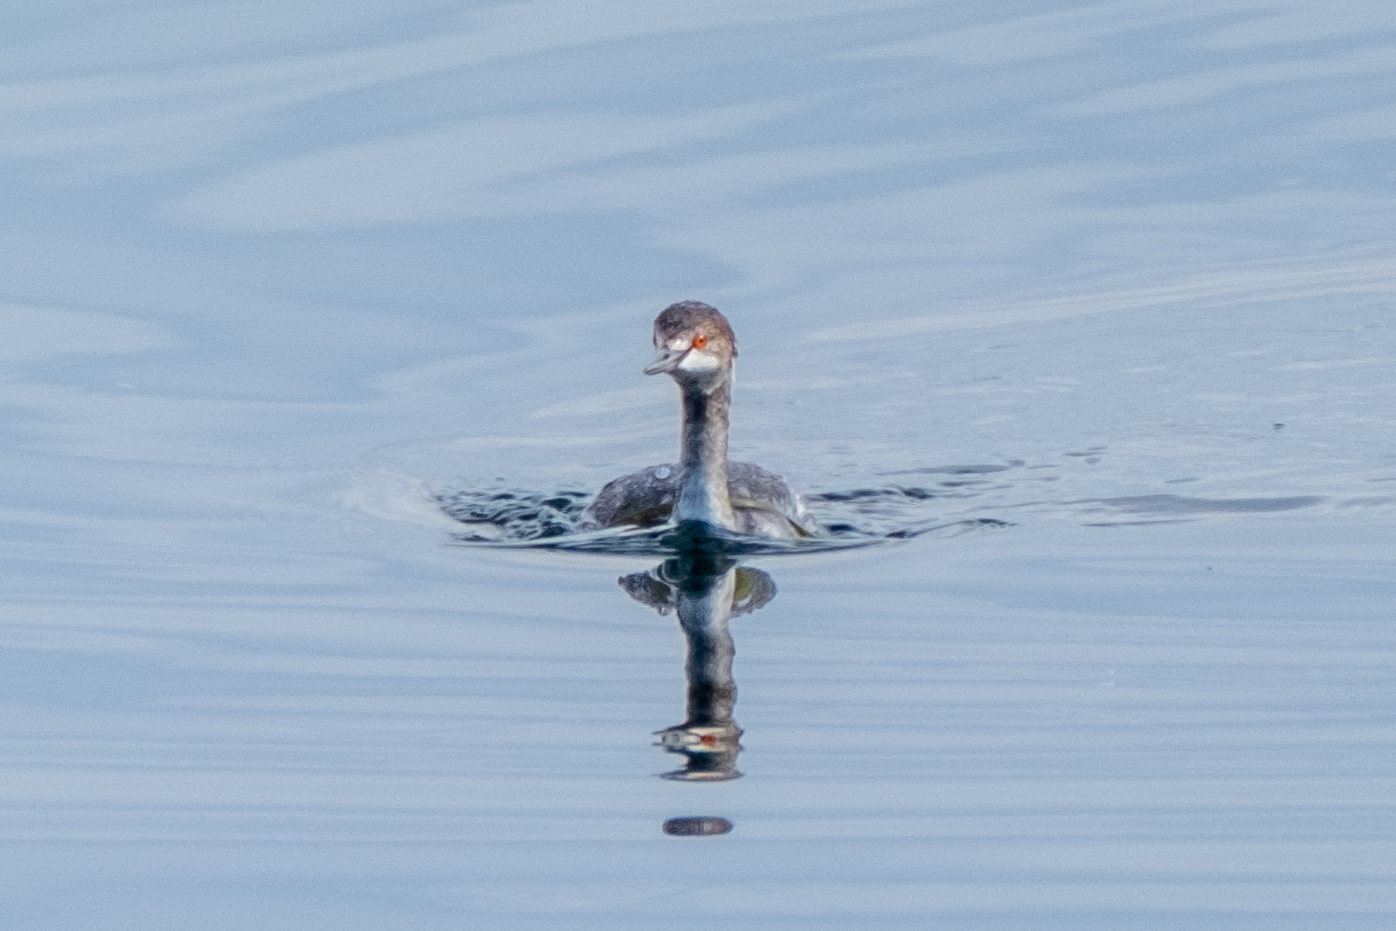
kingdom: Animalia
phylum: Chordata
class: Aves
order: Podicipediformes
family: Podicipedidae
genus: Podiceps
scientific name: Podiceps nigricollis
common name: Black-necked grebe
